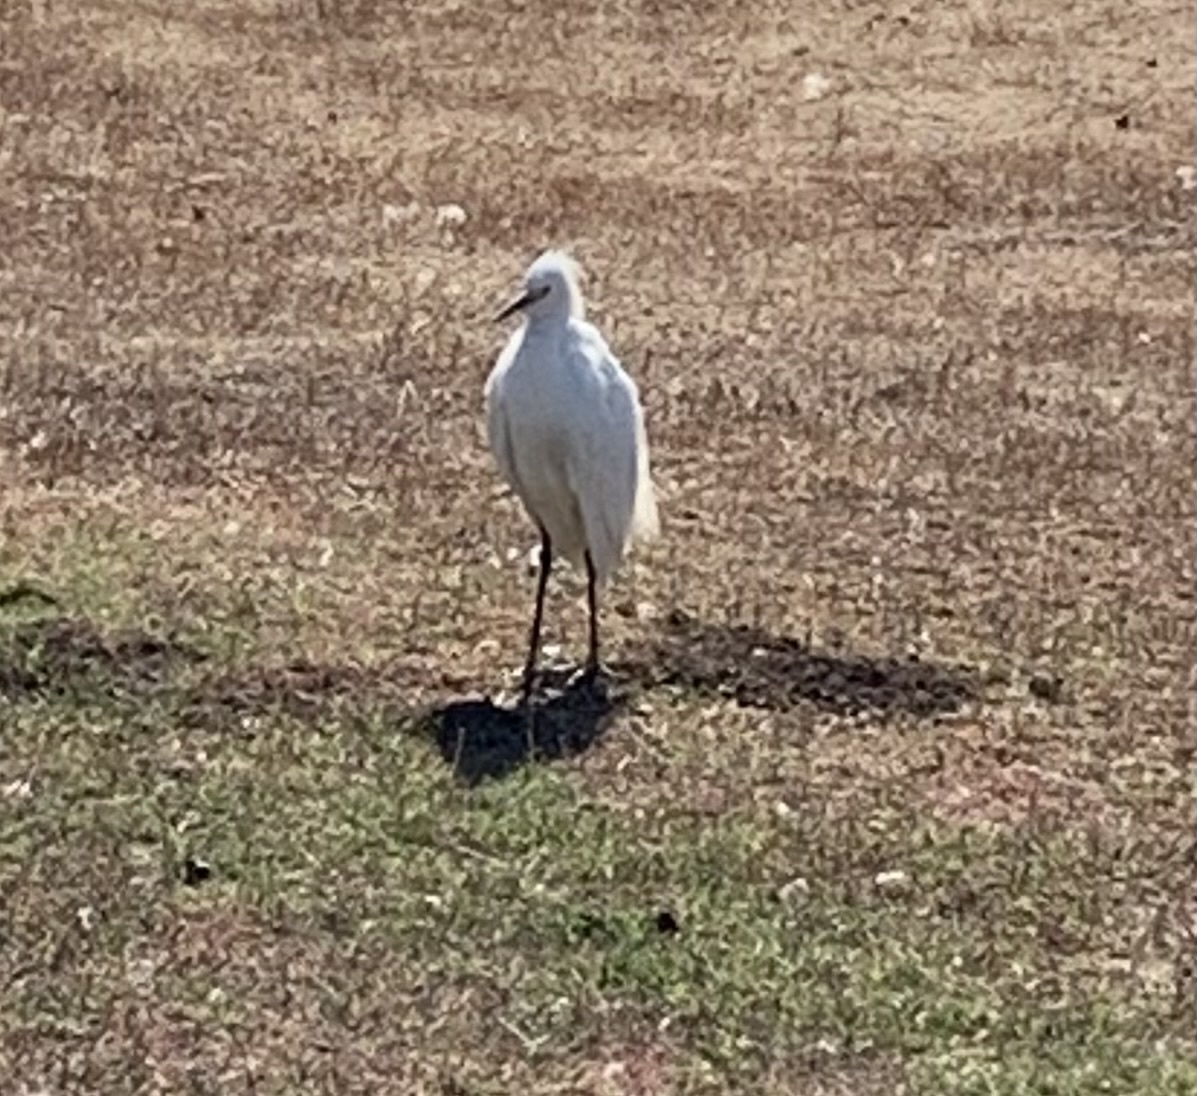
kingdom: Animalia
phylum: Chordata
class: Aves
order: Pelecaniformes
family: Ardeidae
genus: Egretta
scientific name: Egretta thula
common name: Snowy egret
